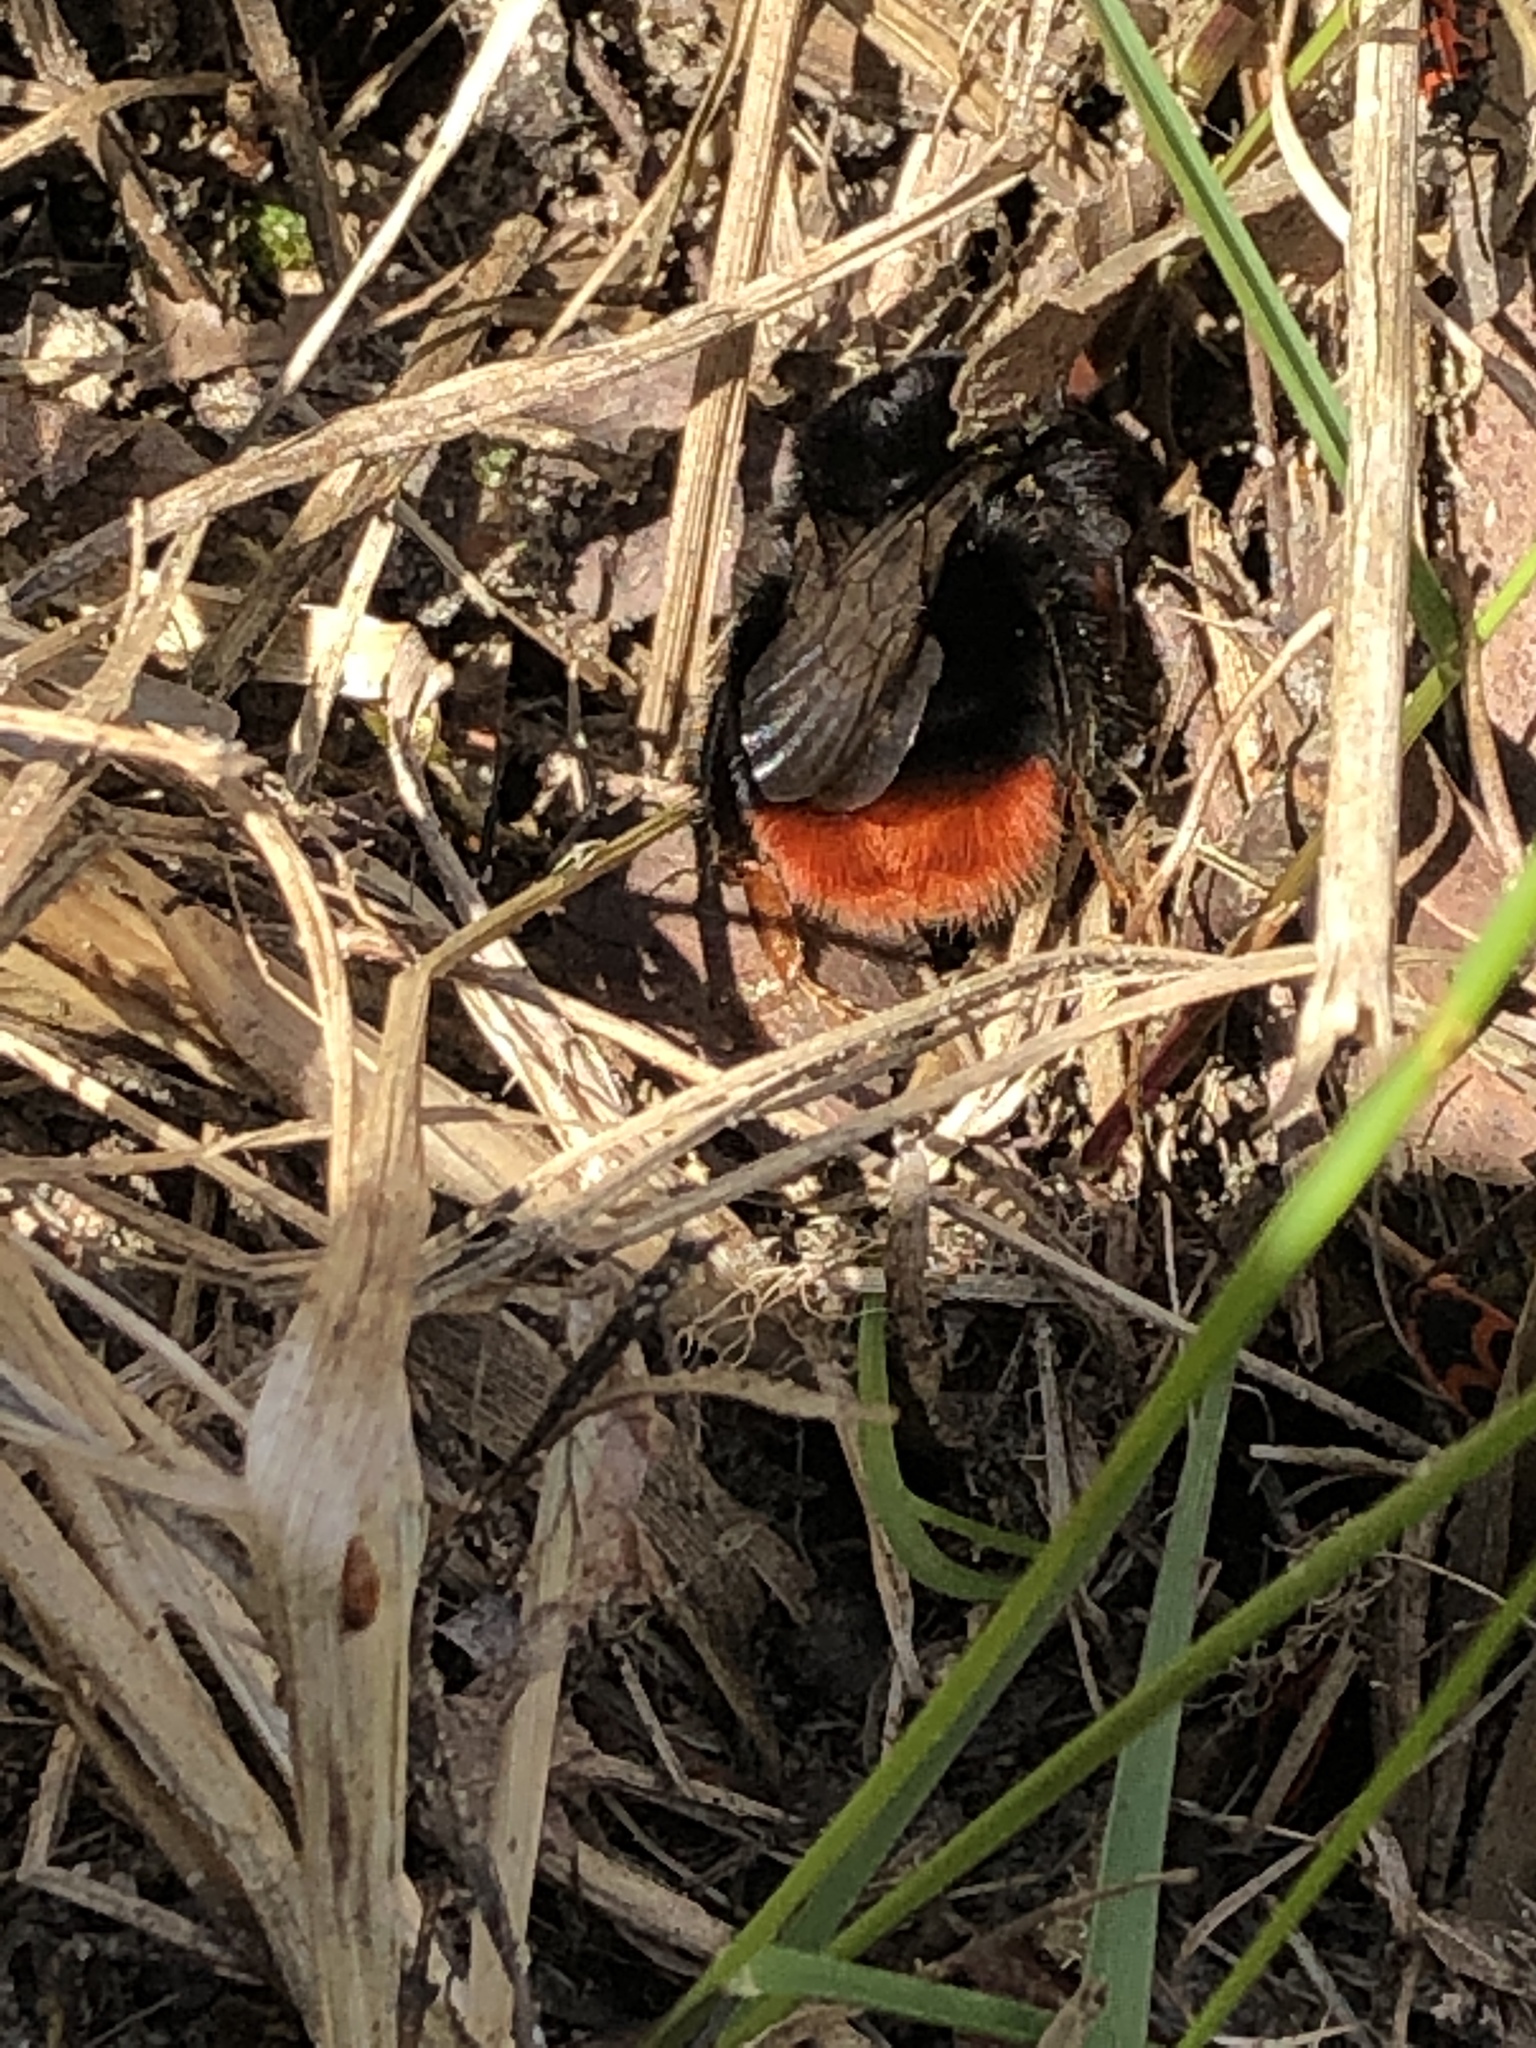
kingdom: Animalia
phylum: Arthropoda
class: Insecta
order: Hymenoptera
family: Apidae
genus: Bombus
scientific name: Bombus lapidarius
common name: Large red-tailed humble-bee
